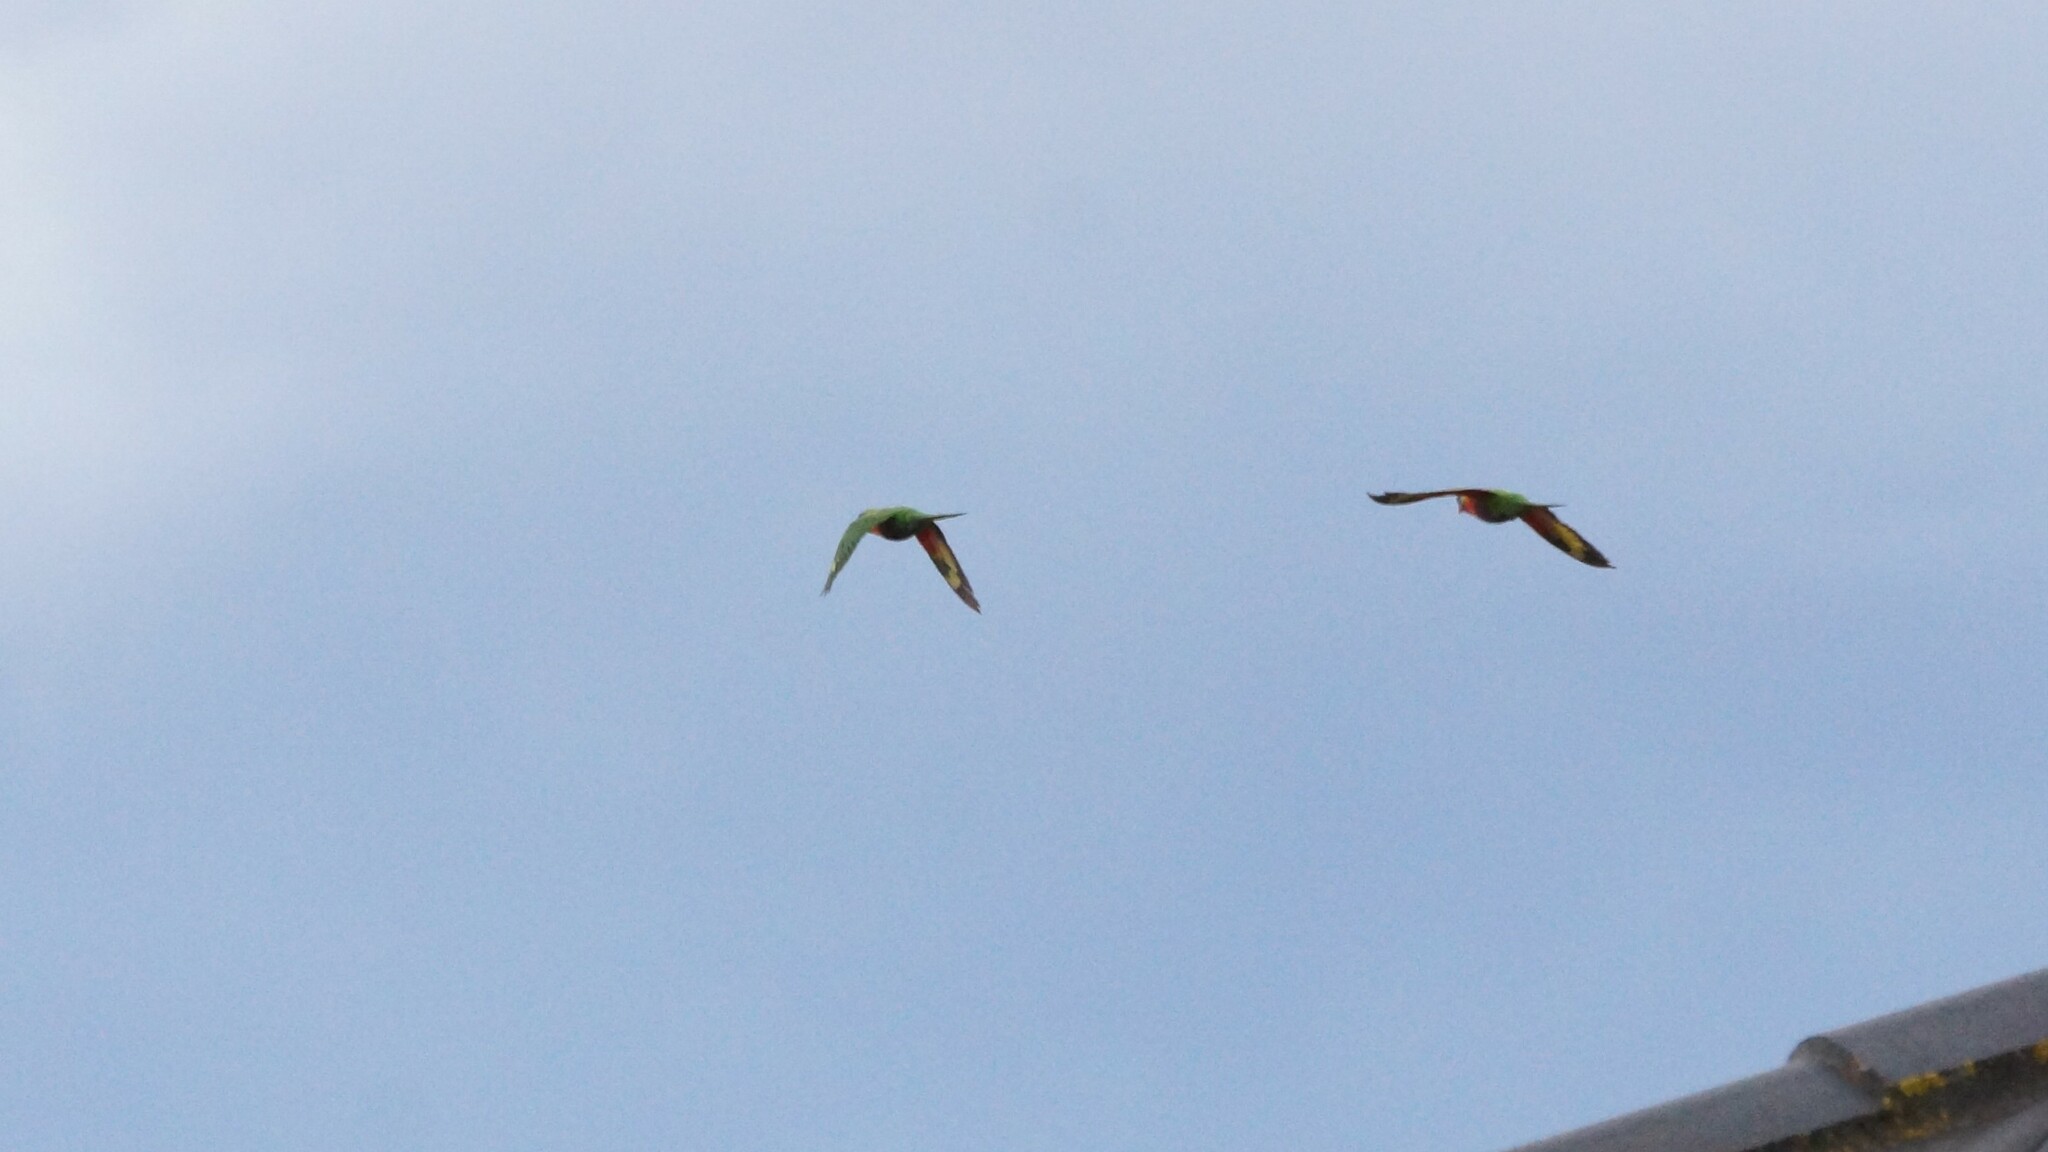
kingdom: Animalia
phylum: Chordata
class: Aves
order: Psittaciformes
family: Psittacidae
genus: Trichoglossus
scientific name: Trichoglossus haematodus
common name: Coconut lorikeet
